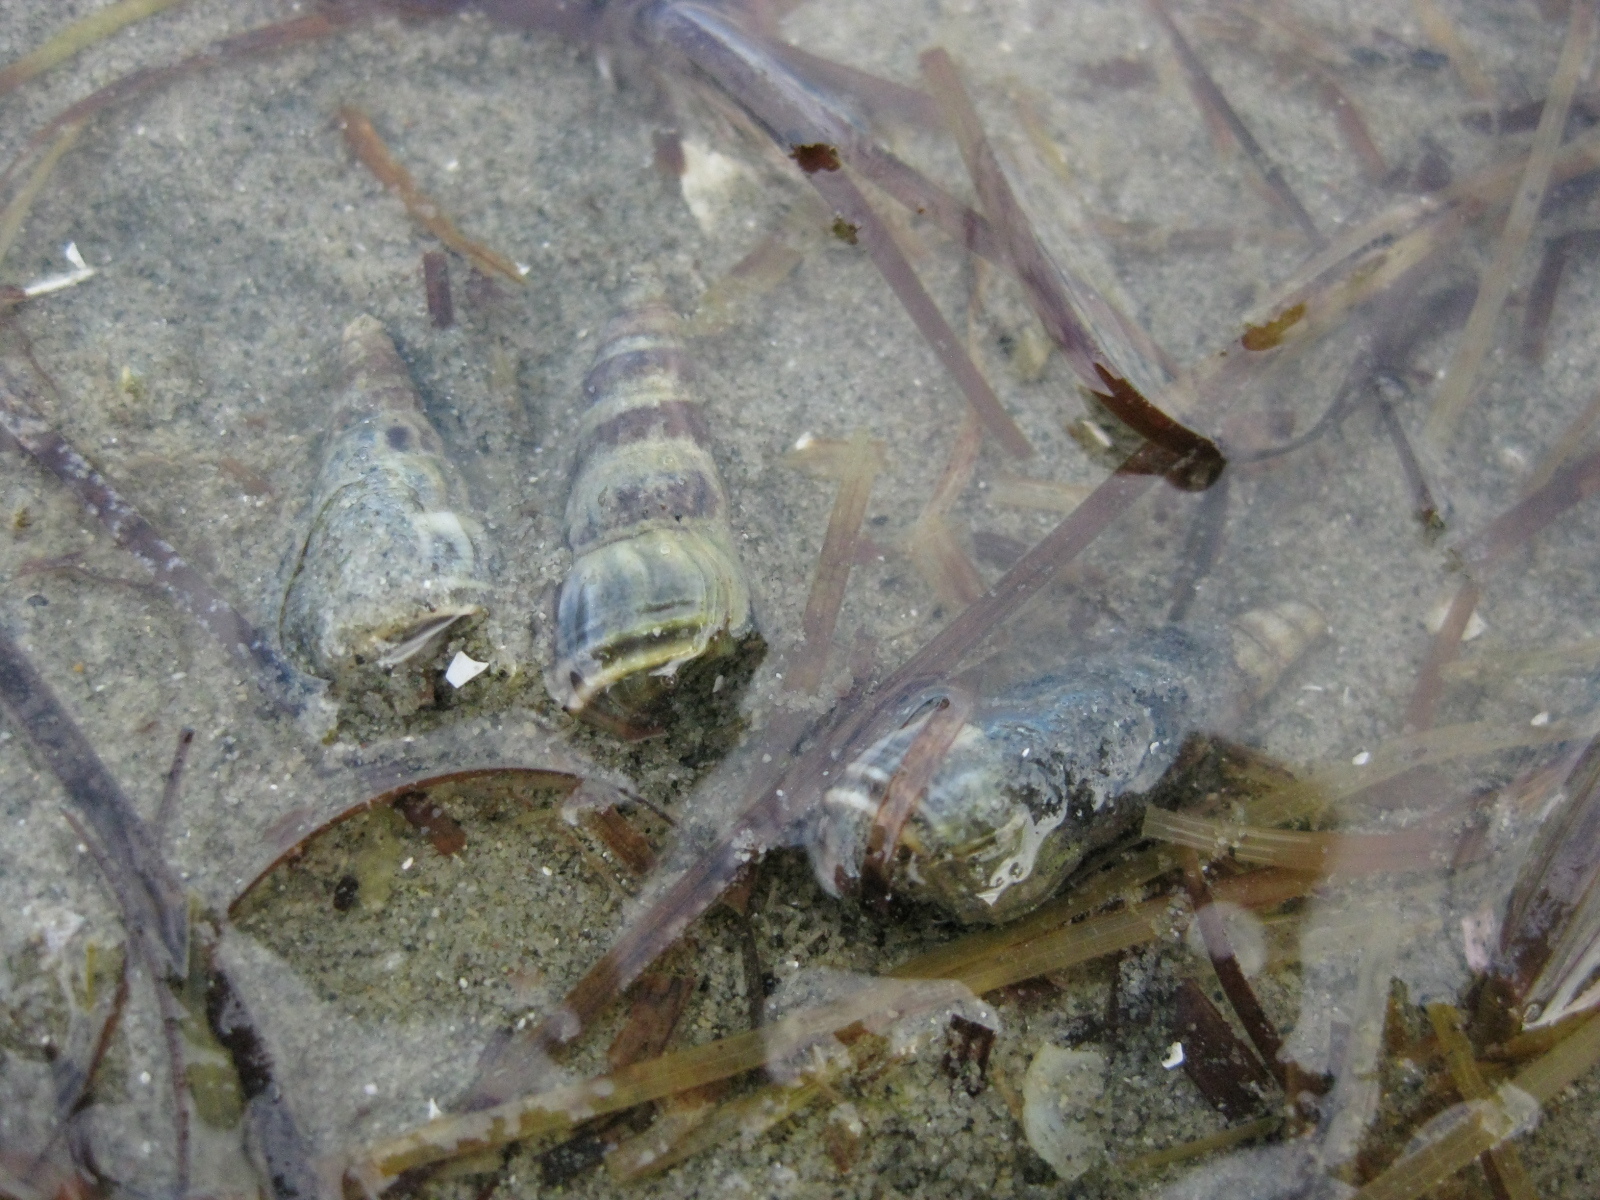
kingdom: Animalia
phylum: Mollusca
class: Gastropoda
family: Batillariidae
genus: Zeacumantus
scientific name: Zeacumantus lutulentus
